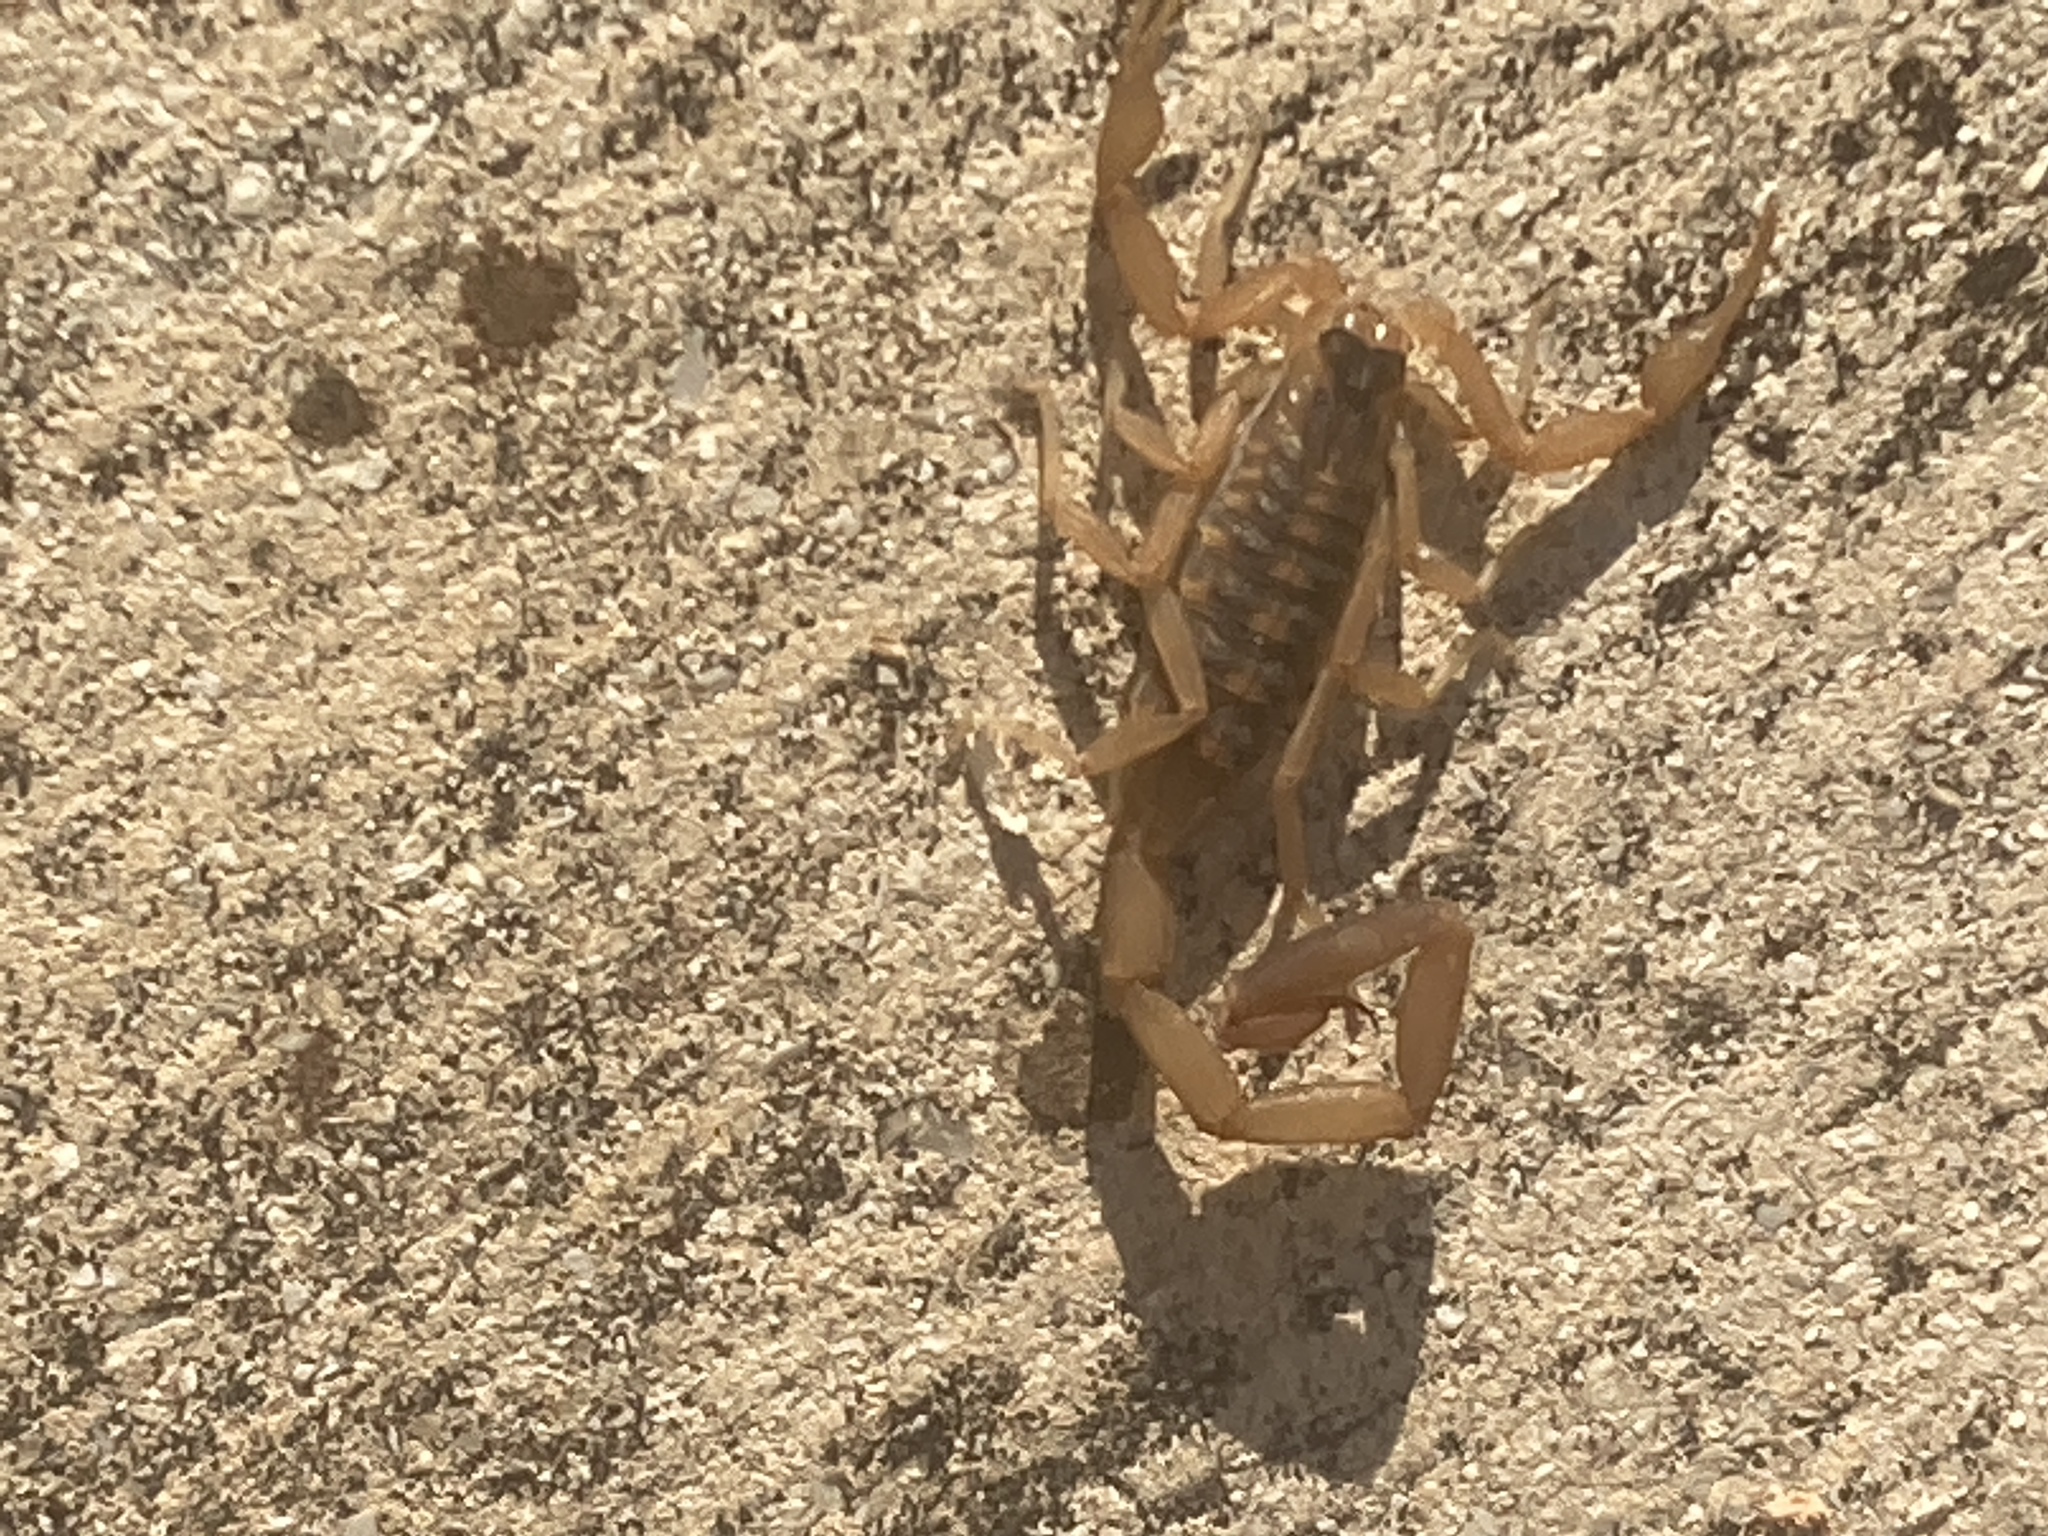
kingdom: Animalia
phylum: Arthropoda
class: Arachnida
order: Scorpiones
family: Buthidae
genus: Centruroides
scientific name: Centruroides vittatus
